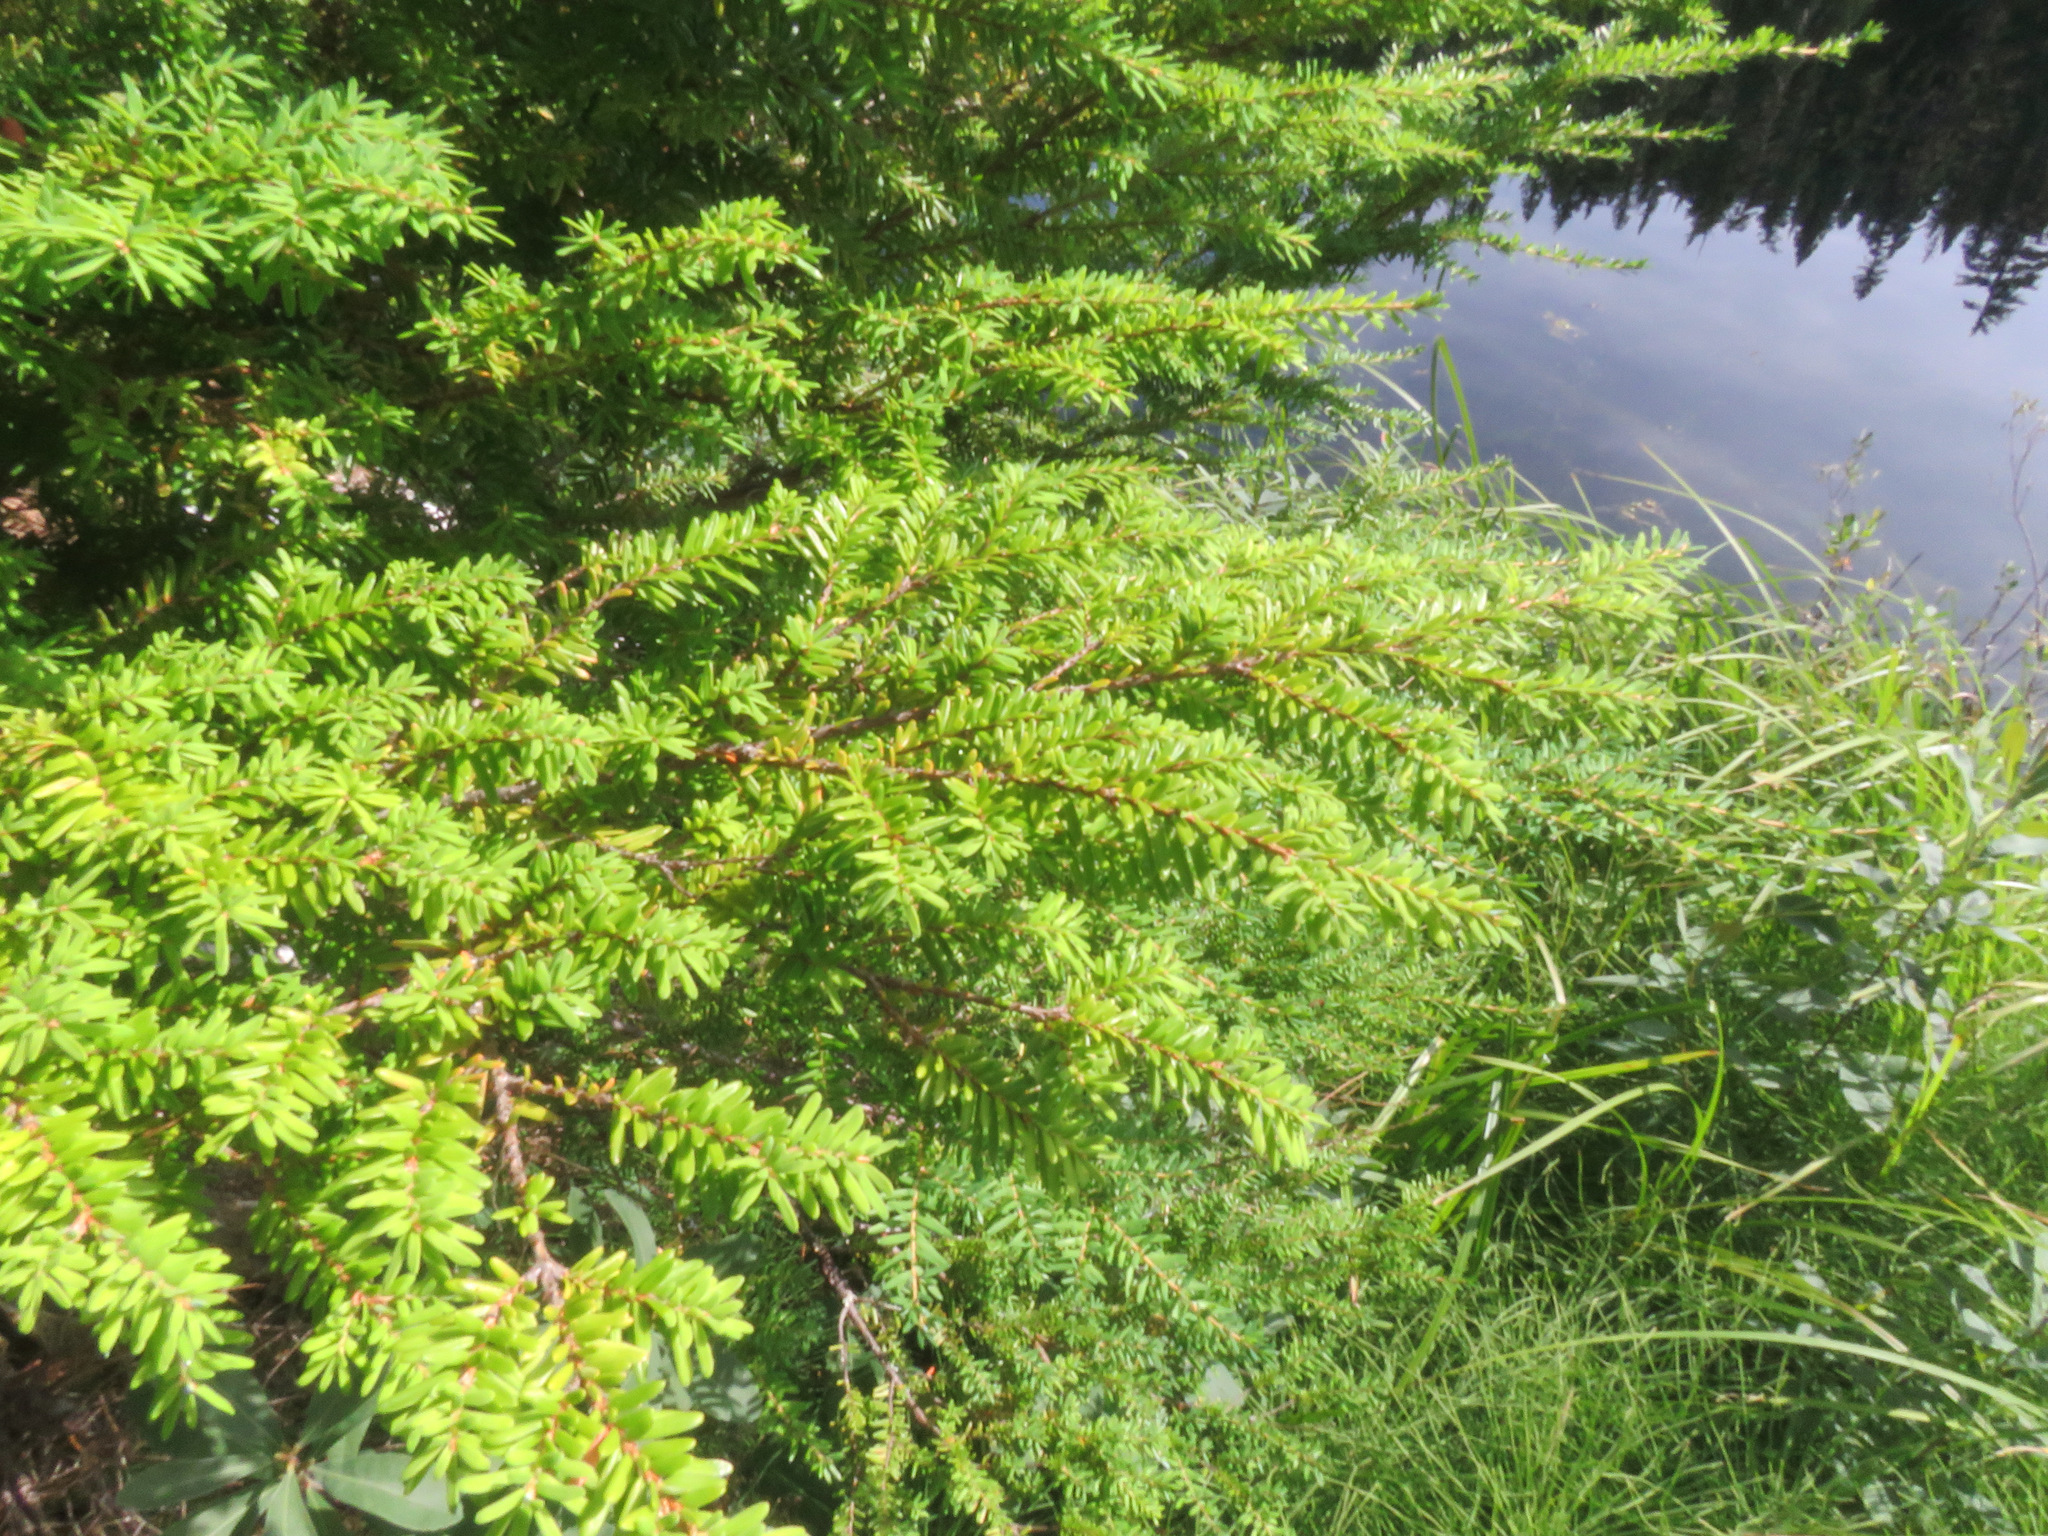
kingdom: Plantae
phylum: Tracheophyta
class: Pinopsida
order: Pinales
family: Pinaceae
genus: Tsuga
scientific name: Tsuga heterophylla
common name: Western hemlock
